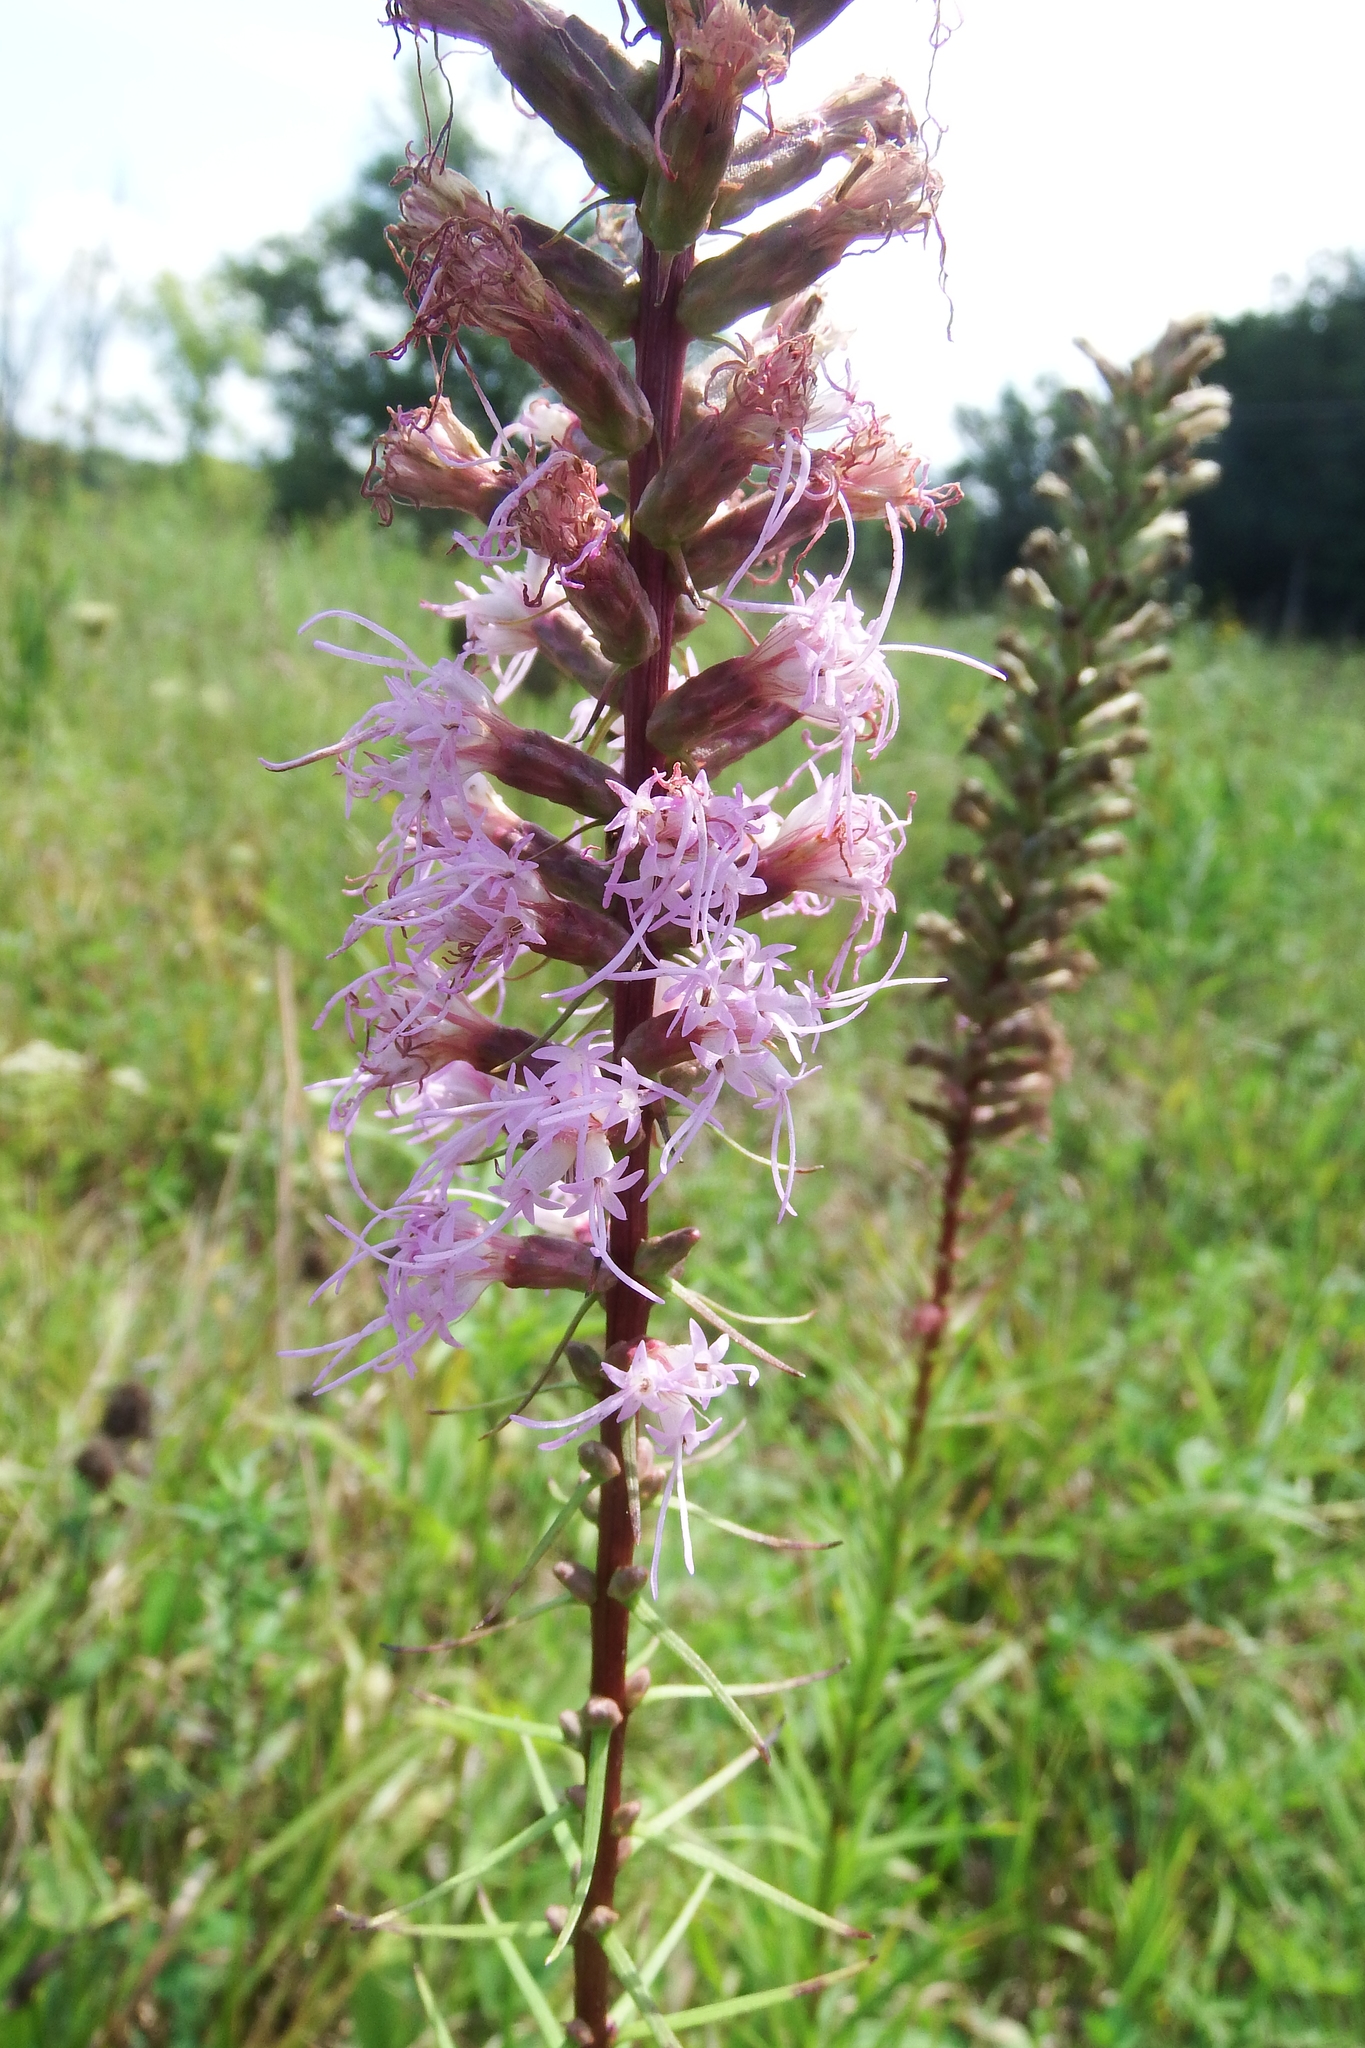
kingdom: Plantae
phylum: Tracheophyta
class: Magnoliopsida
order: Asterales
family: Asteraceae
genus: Liatris
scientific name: Liatris spicata
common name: Florist gayfeather
